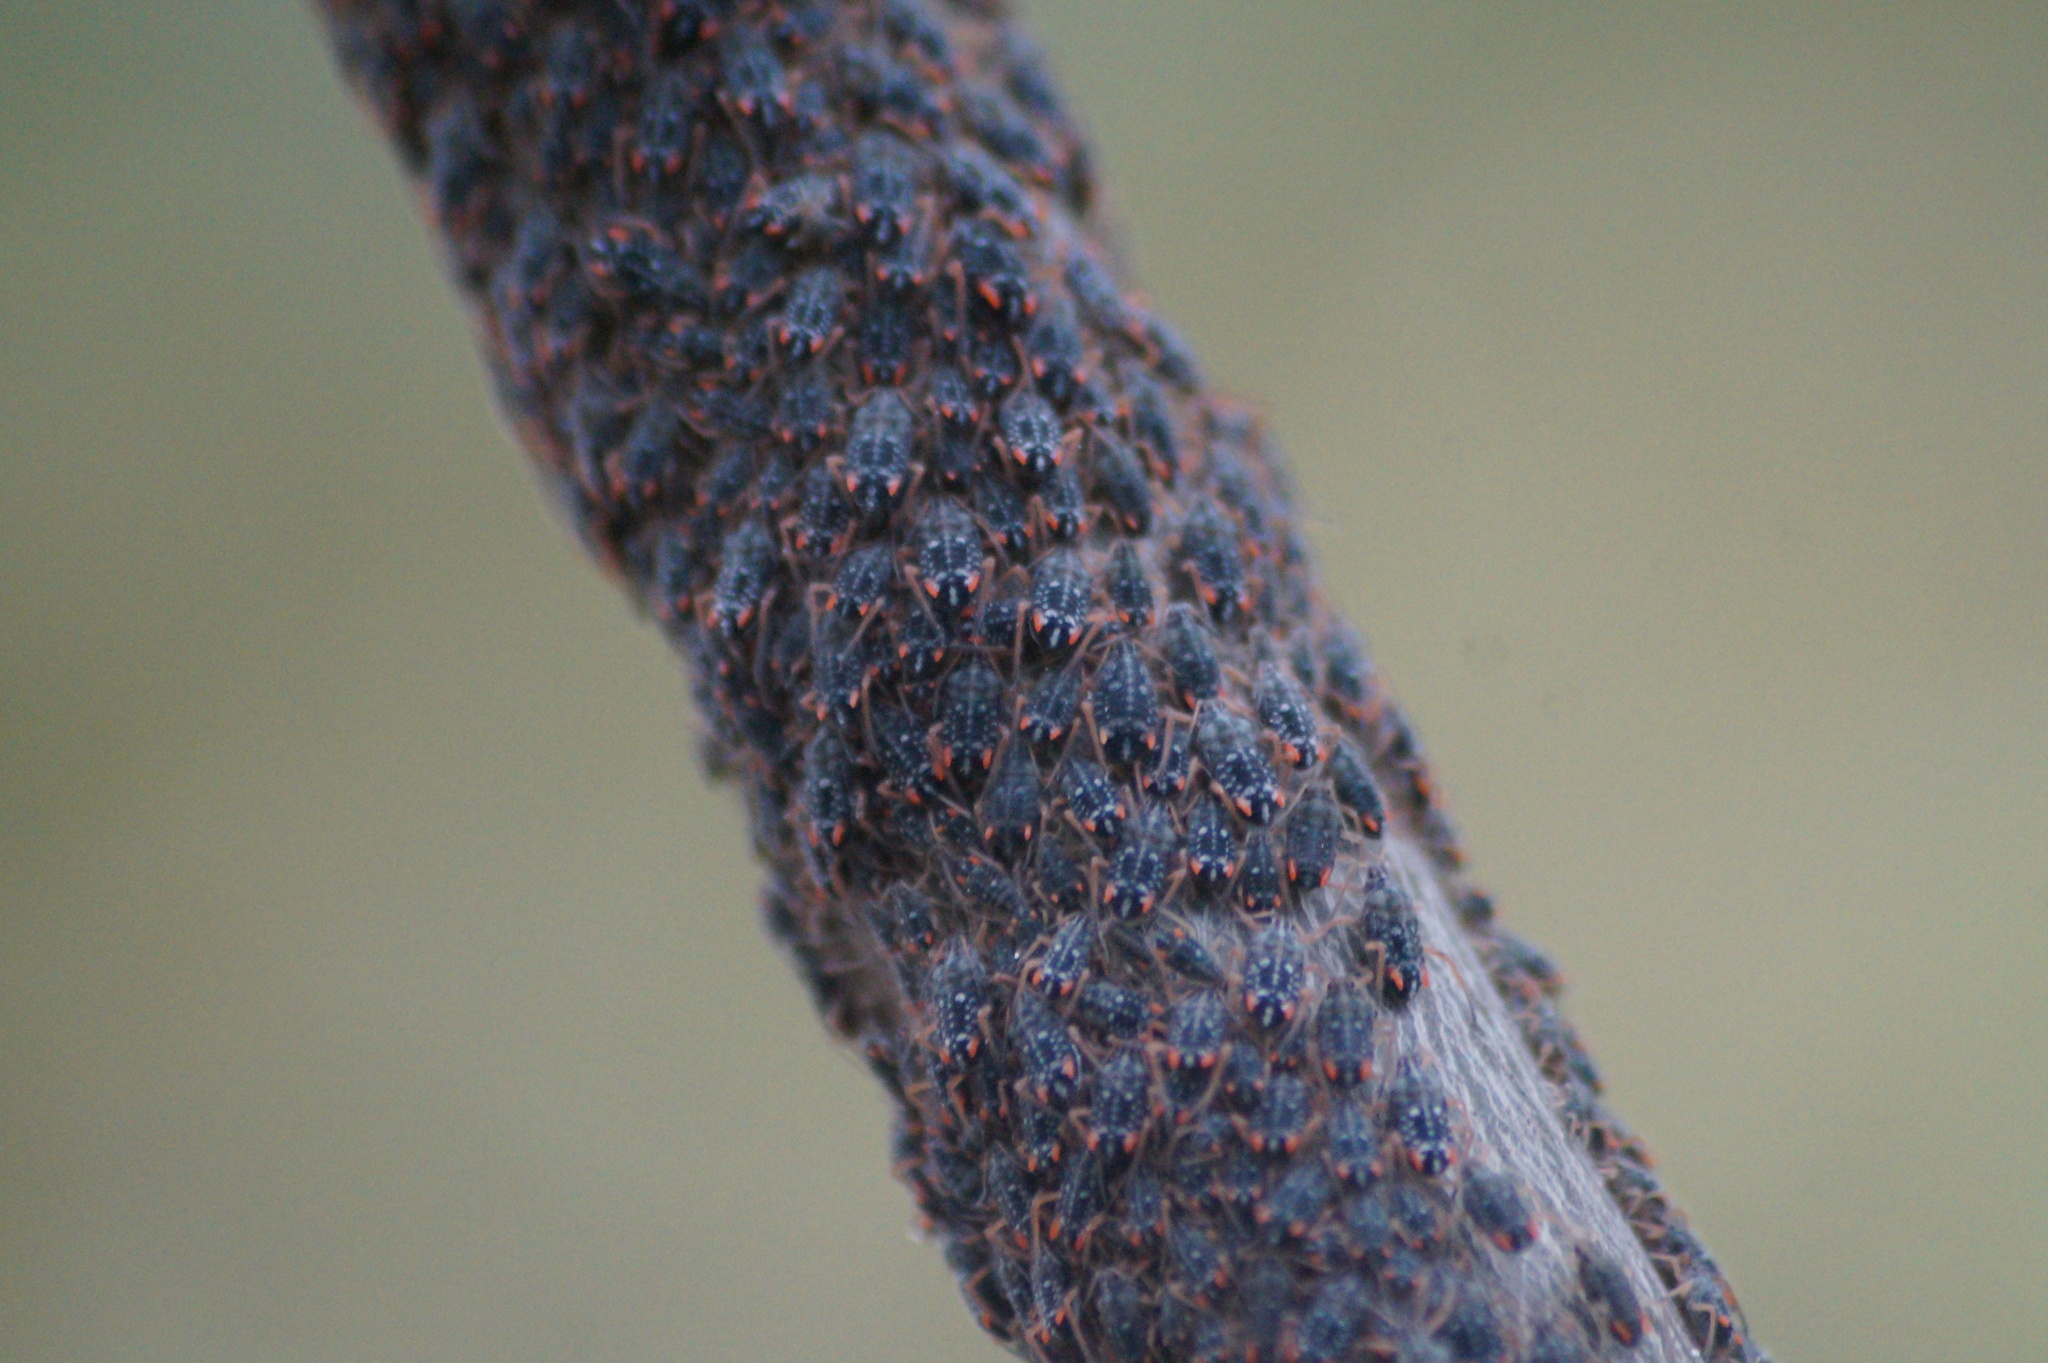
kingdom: Animalia
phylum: Arthropoda
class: Insecta
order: Hemiptera
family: Aphididae
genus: Pterocomma
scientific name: Pterocomma salicis
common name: Aphid
